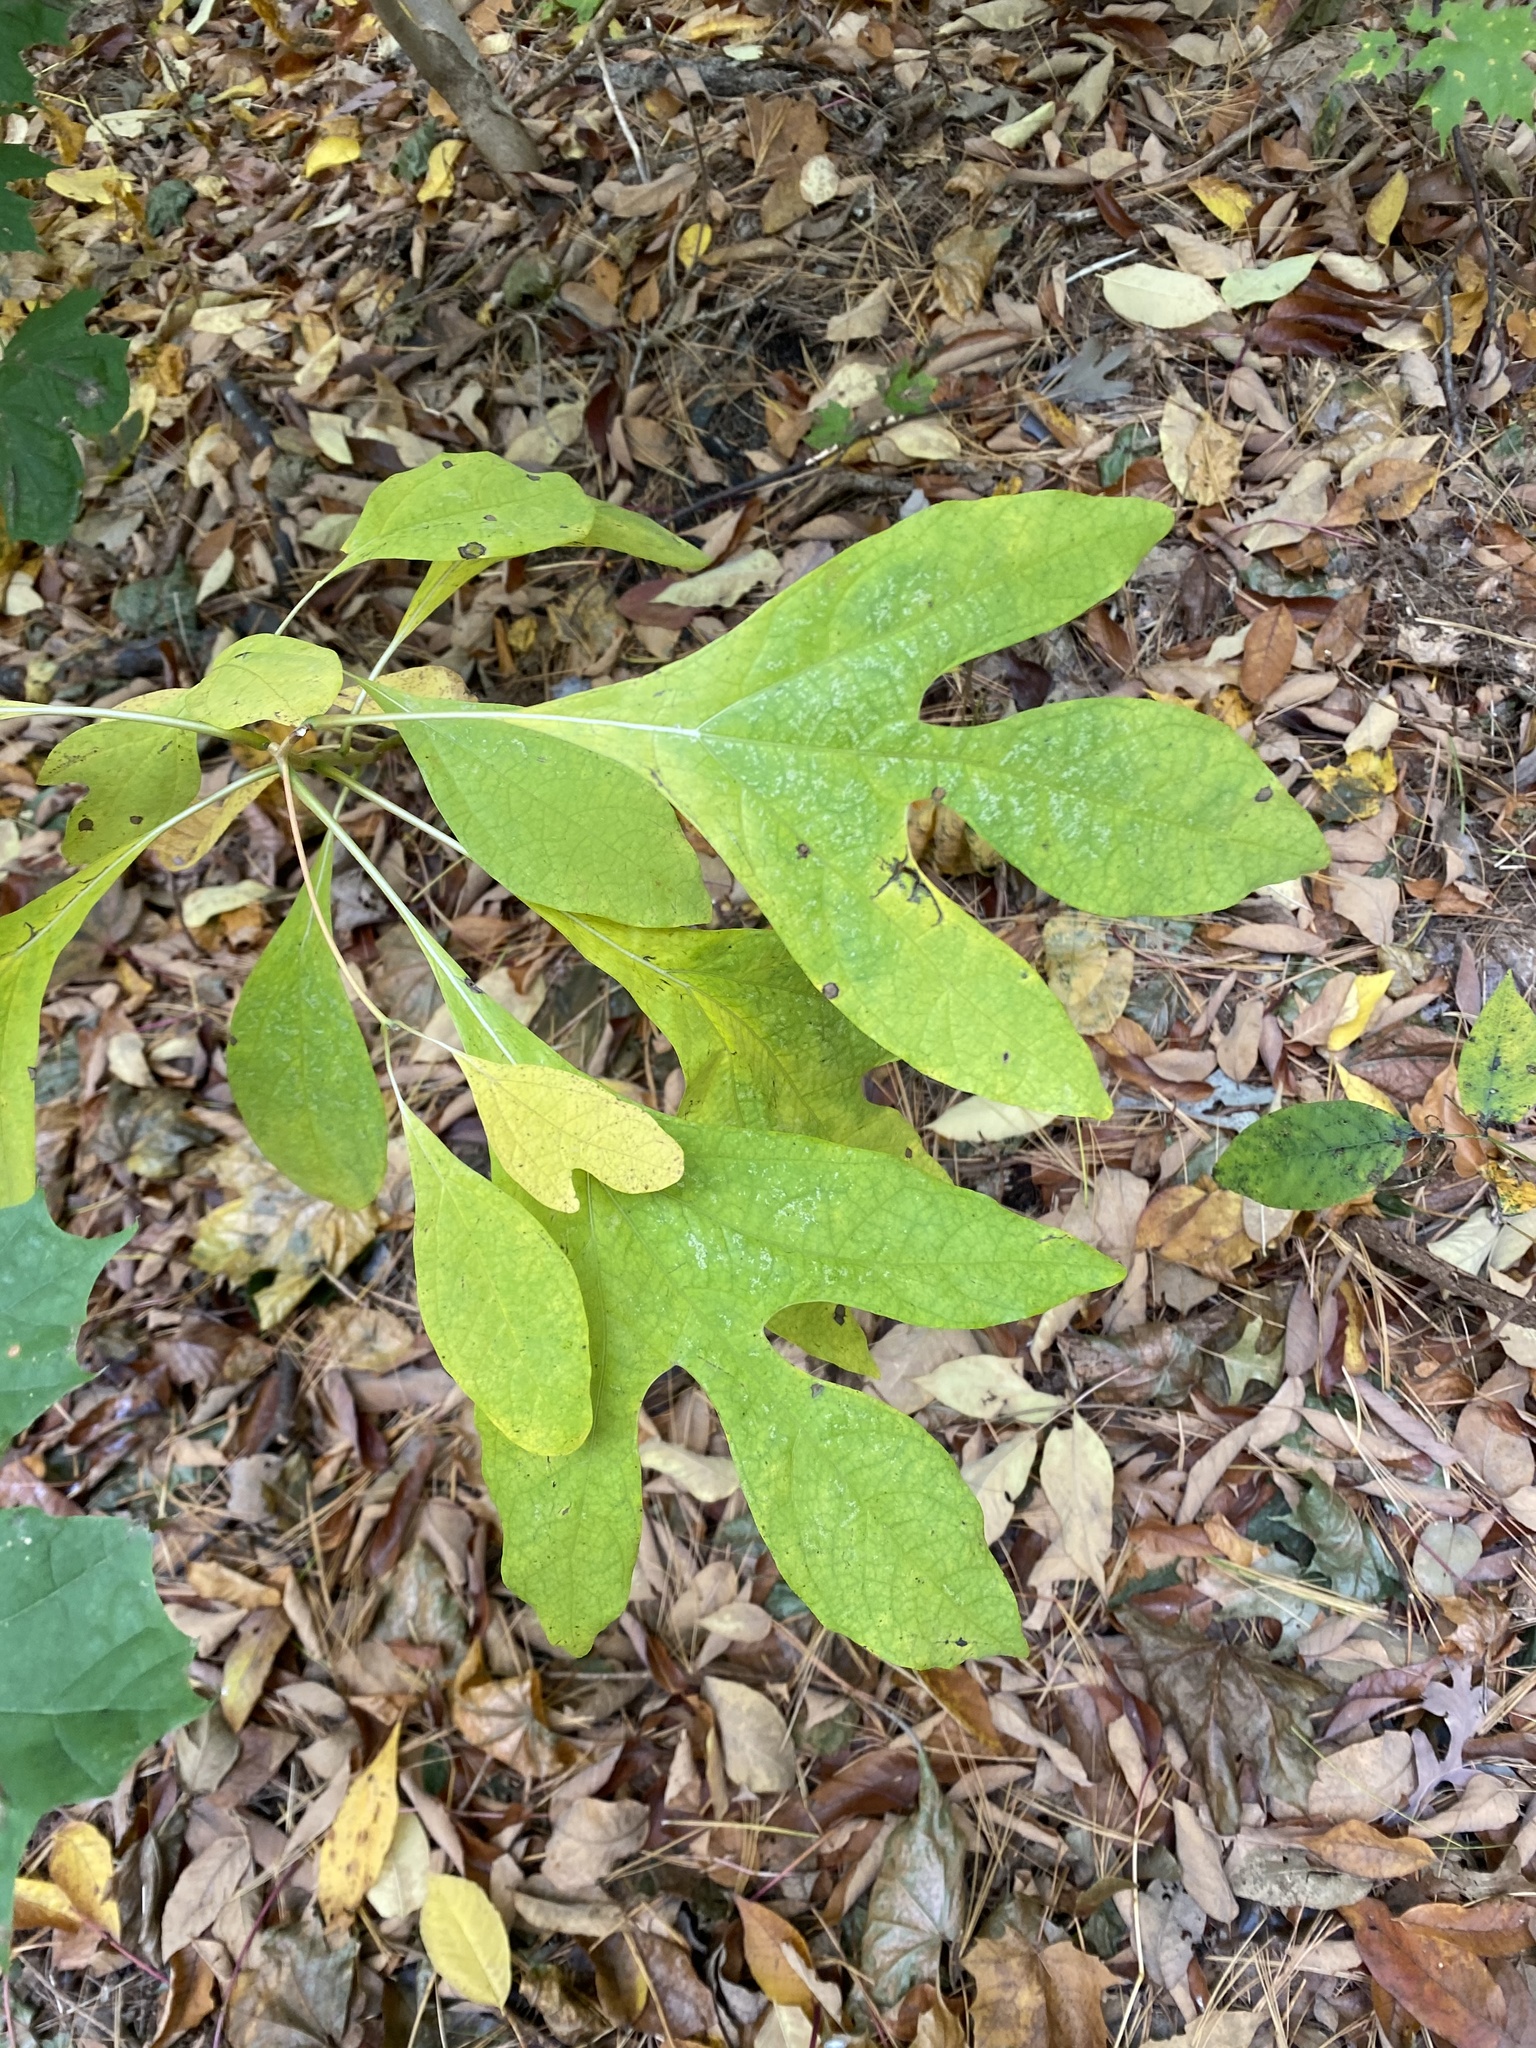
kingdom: Plantae
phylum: Tracheophyta
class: Magnoliopsida
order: Laurales
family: Lauraceae
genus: Sassafras
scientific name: Sassafras albidum
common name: Sassafras
